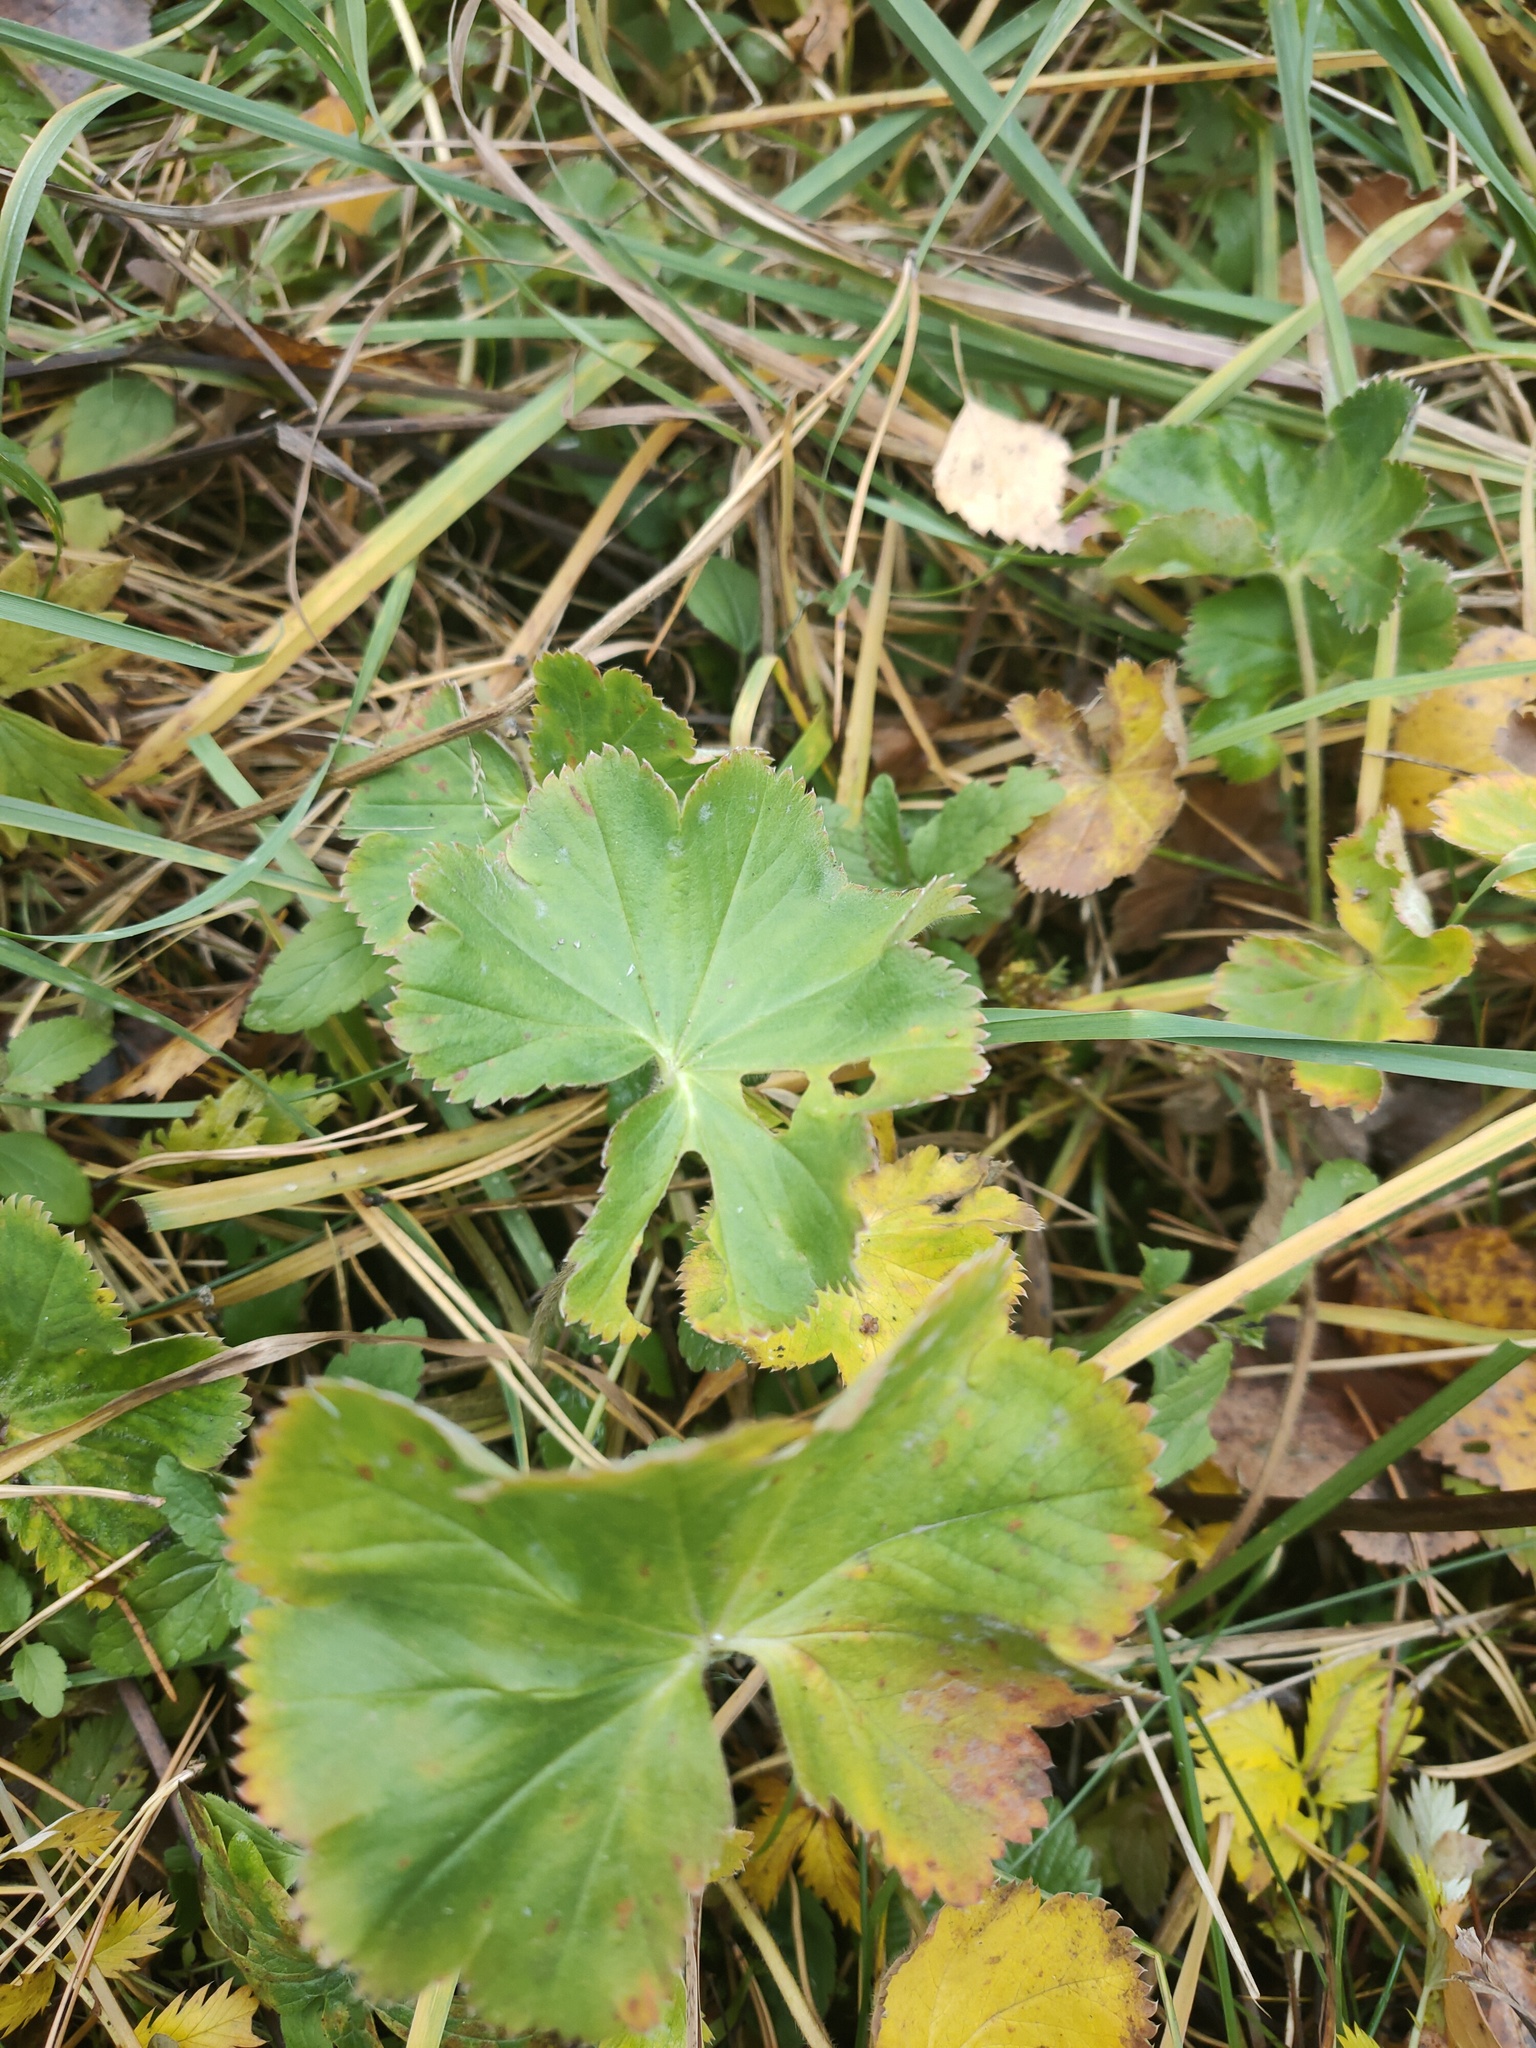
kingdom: Plantae
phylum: Tracheophyta
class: Magnoliopsida
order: Rosales
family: Rosaceae
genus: Alchemilla
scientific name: Alchemilla
